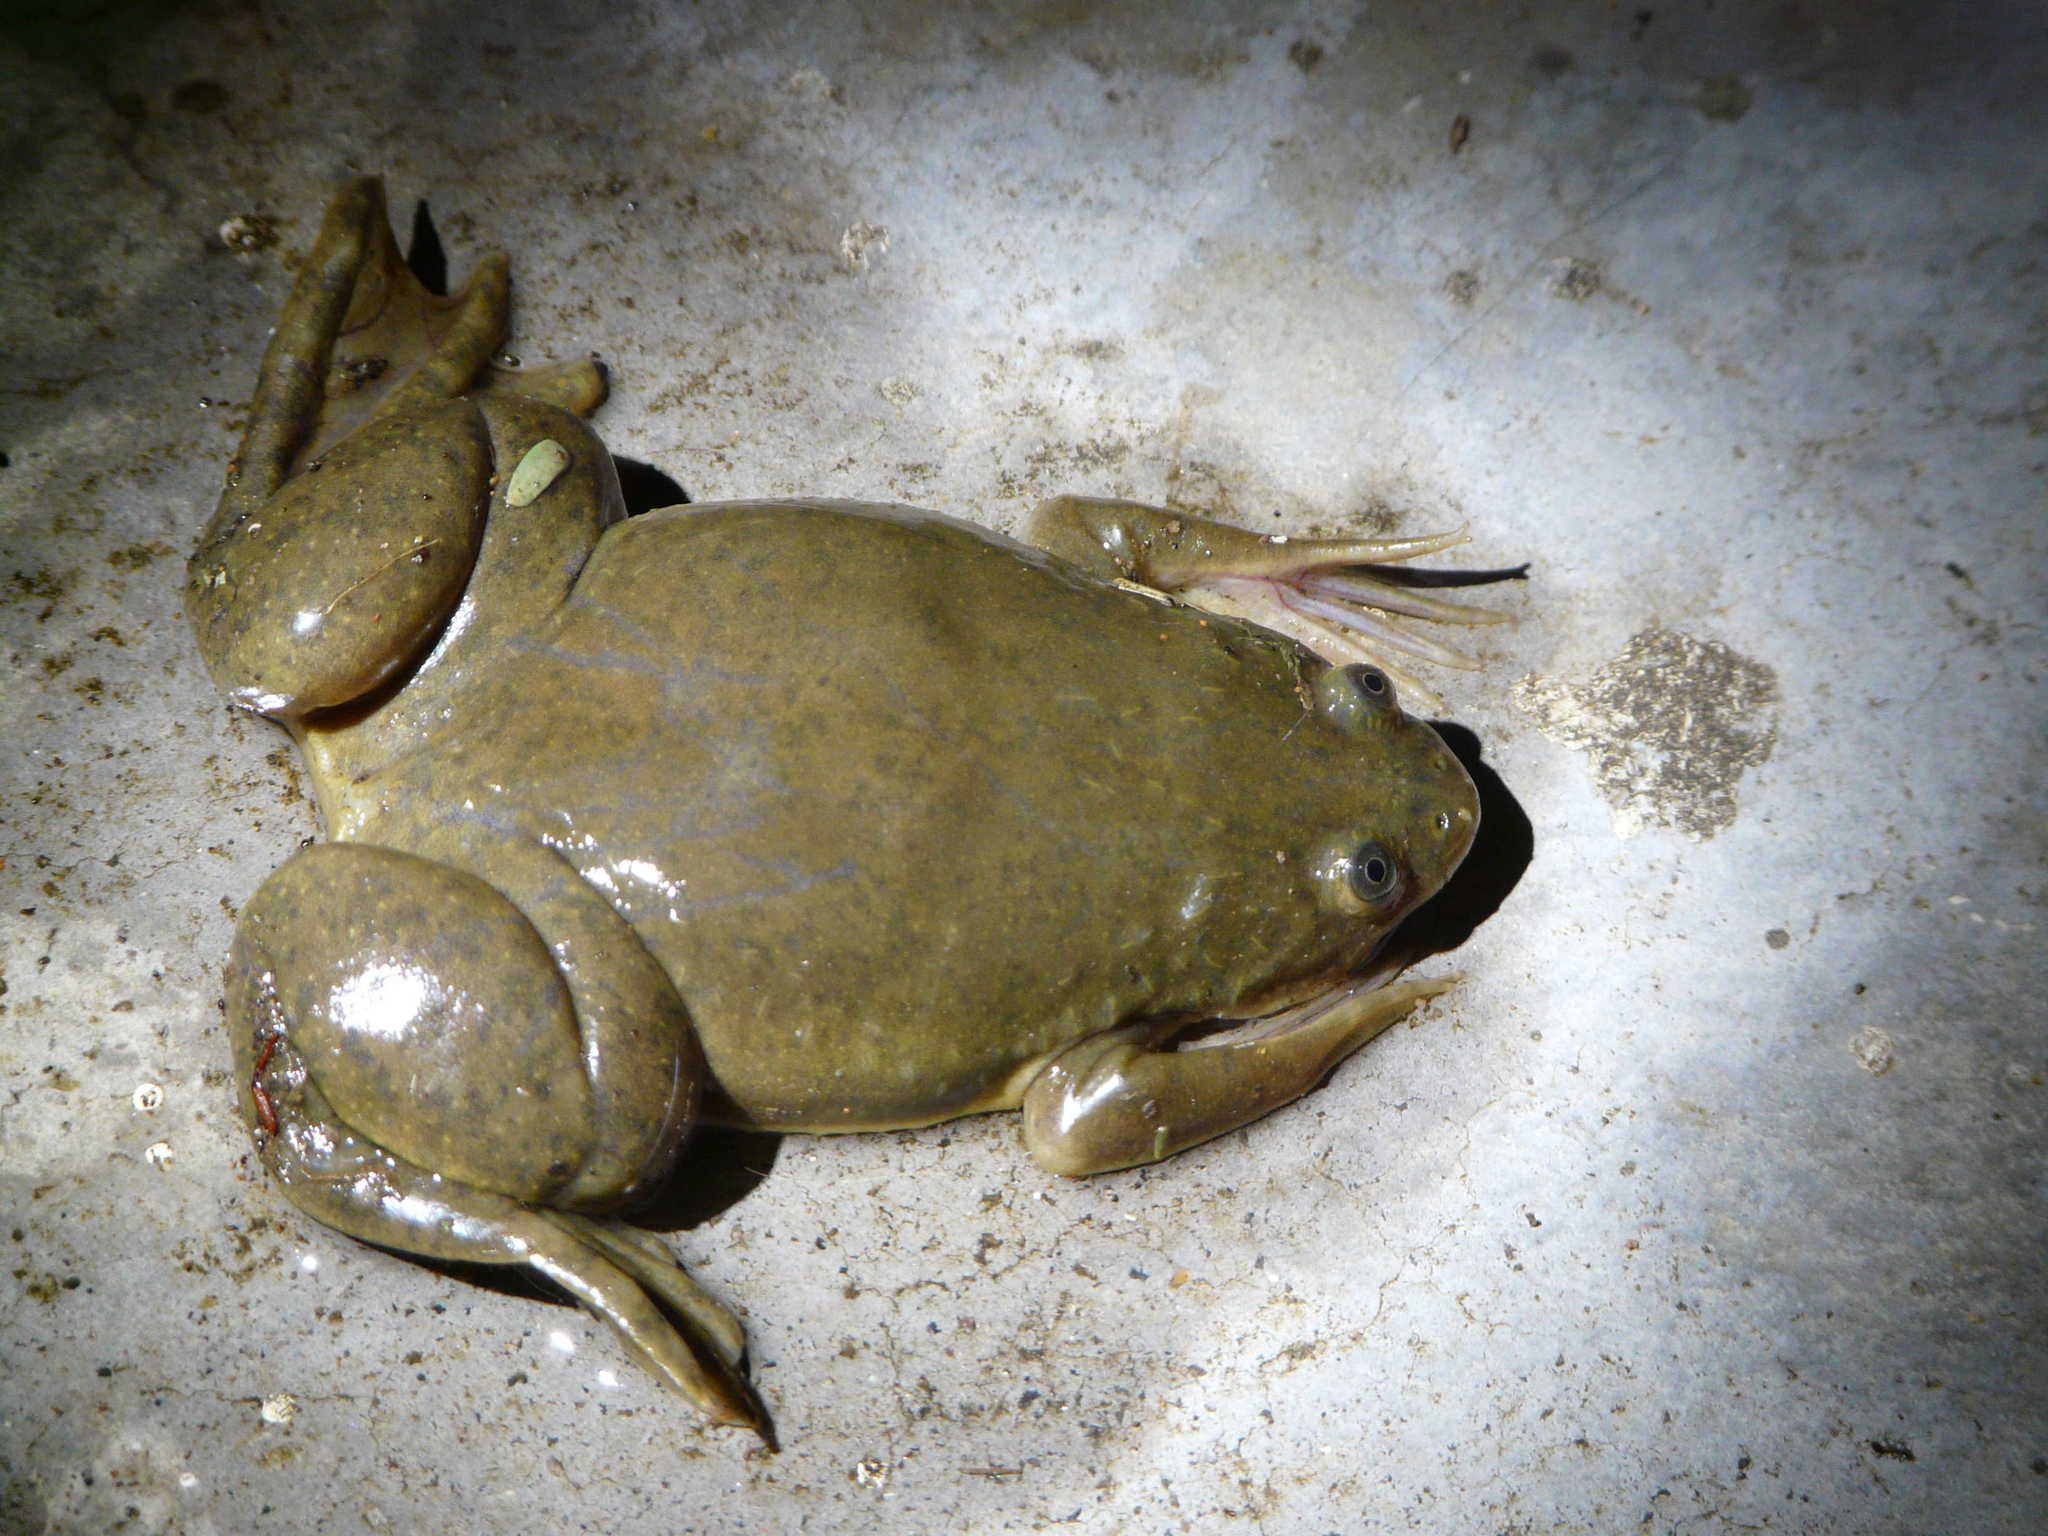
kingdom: Animalia
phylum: Chordata
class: Amphibia
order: Anura
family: Pipidae
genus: Xenopus
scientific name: Xenopus laevis
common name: African clawed frog
